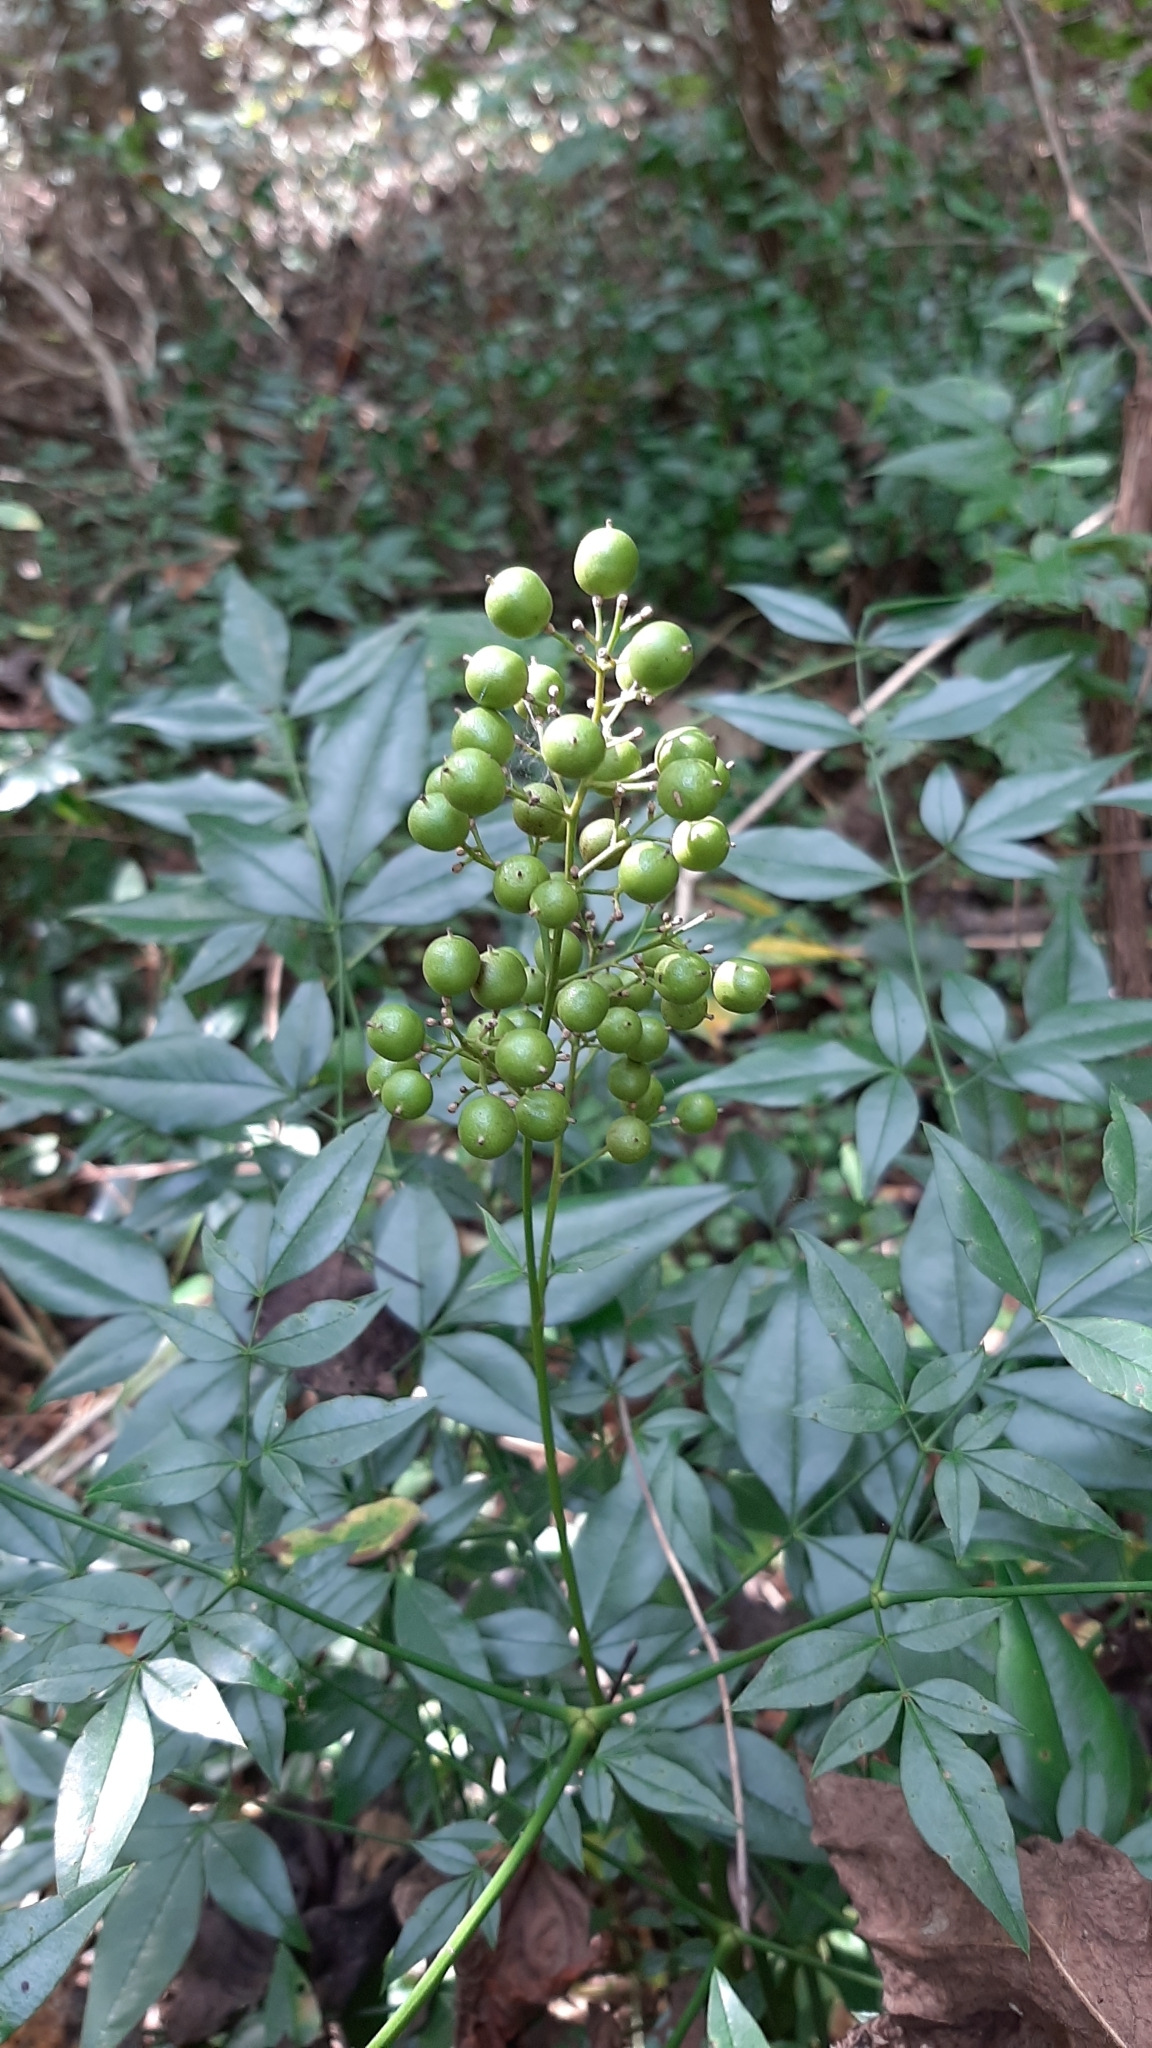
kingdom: Plantae
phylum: Tracheophyta
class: Magnoliopsida
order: Ranunculales
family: Berberidaceae
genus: Nandina
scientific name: Nandina domestica
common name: Sacred bamboo
